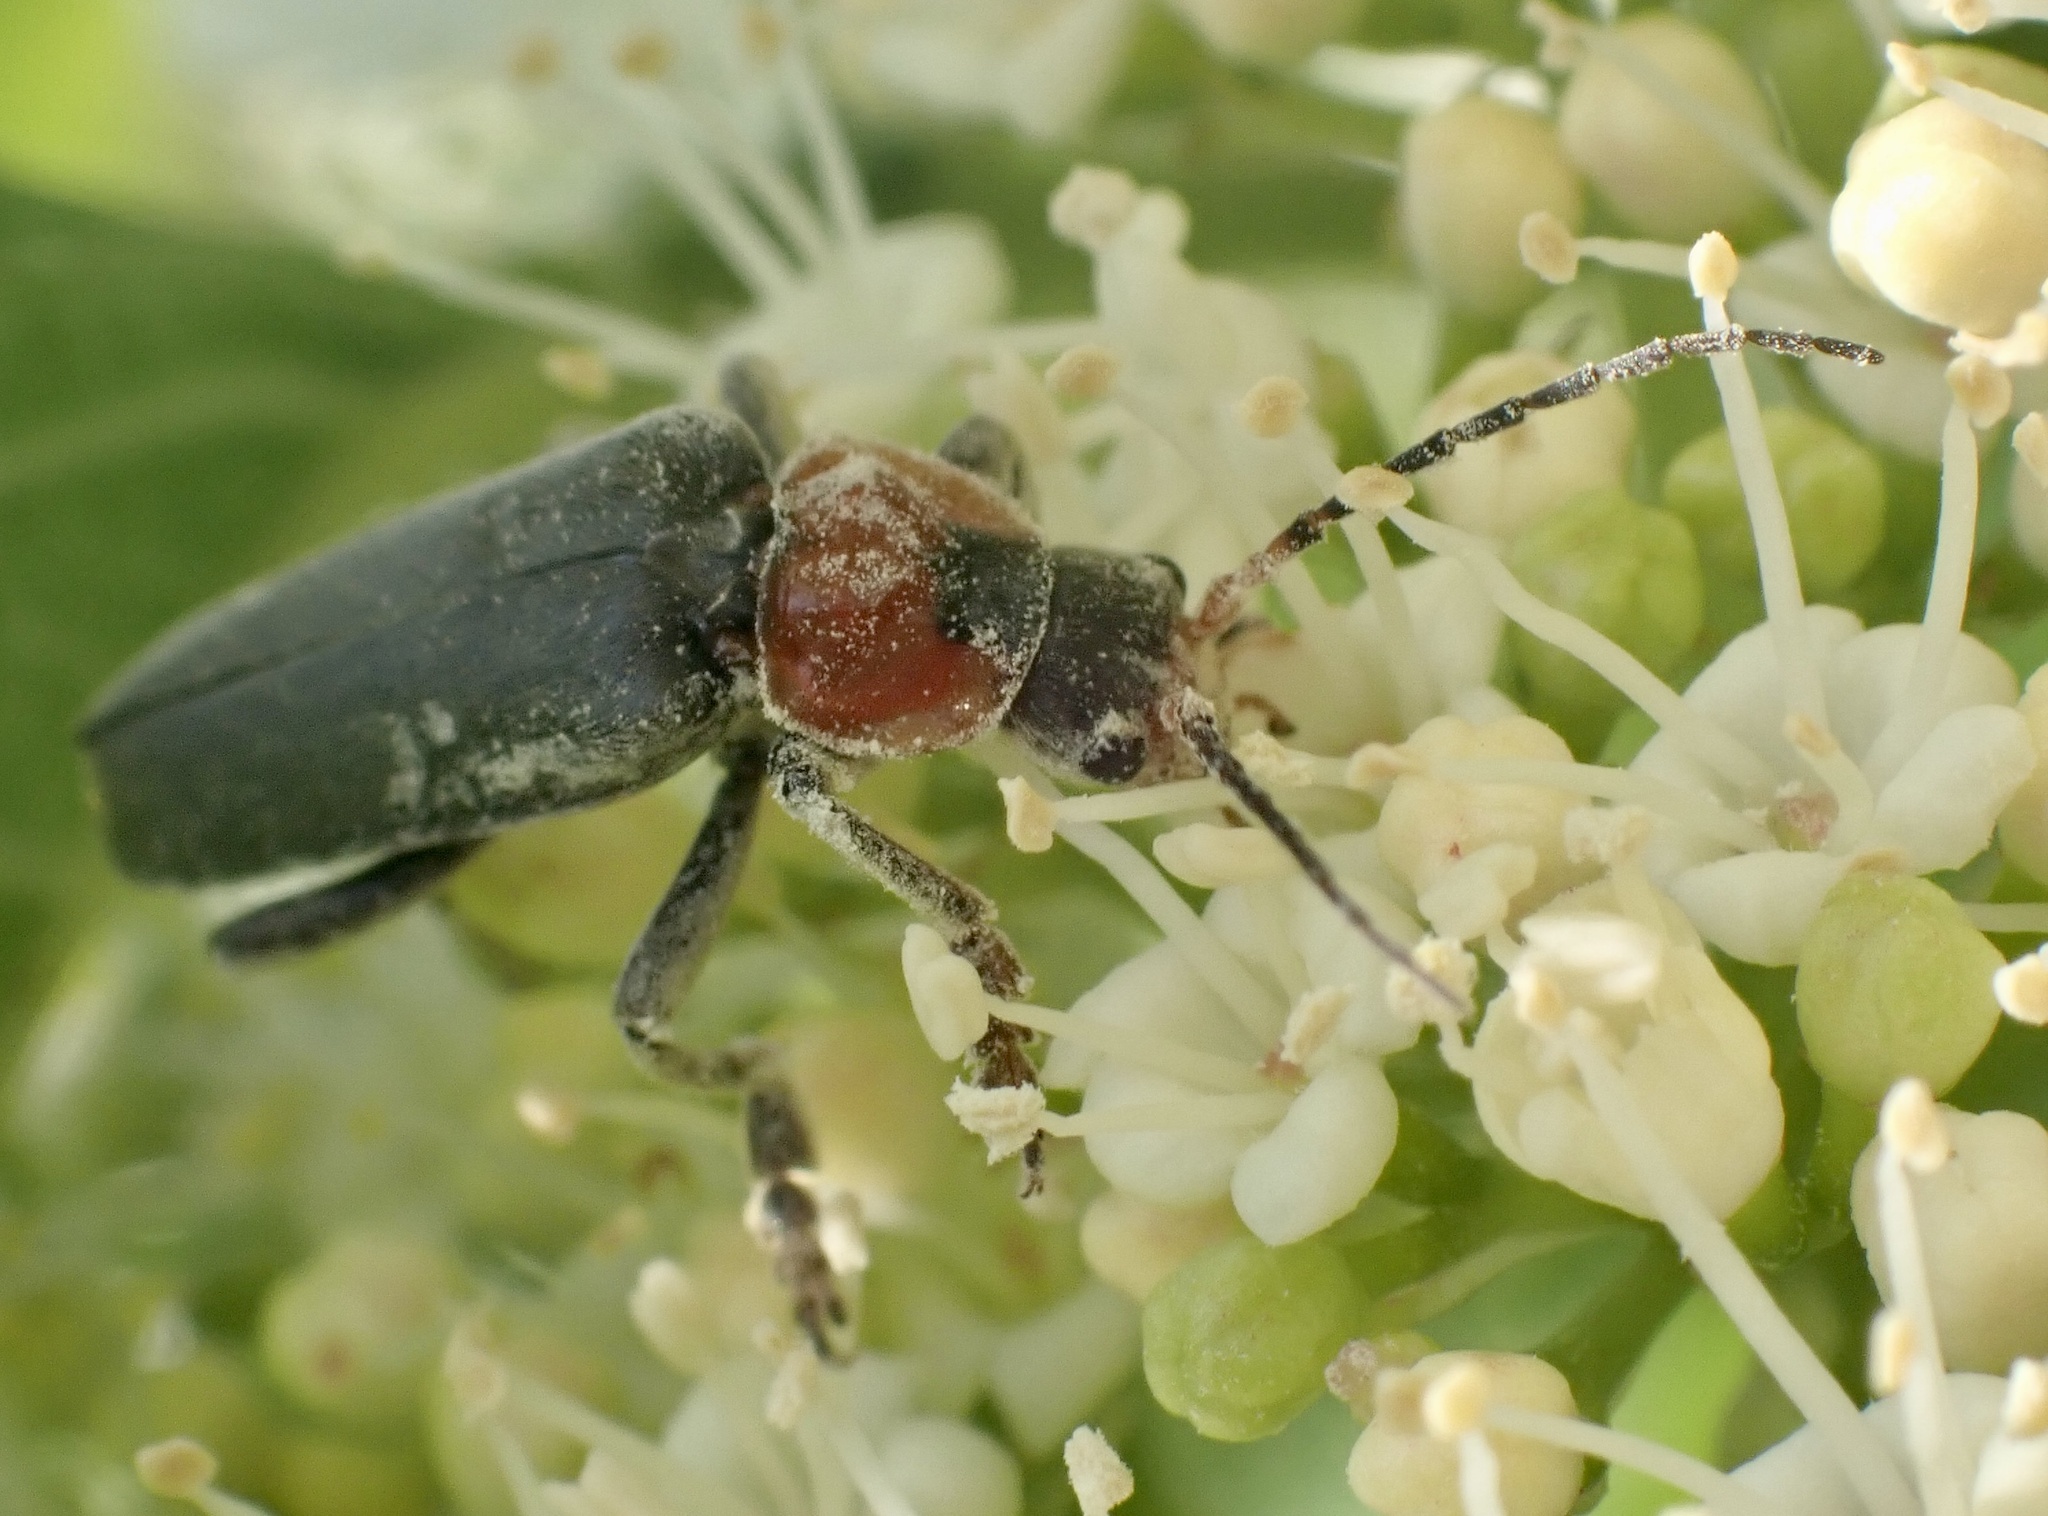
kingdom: Animalia
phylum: Arthropoda
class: Insecta
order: Coleoptera
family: Cantharidae
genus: Cantharis
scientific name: Cantharis fusca
